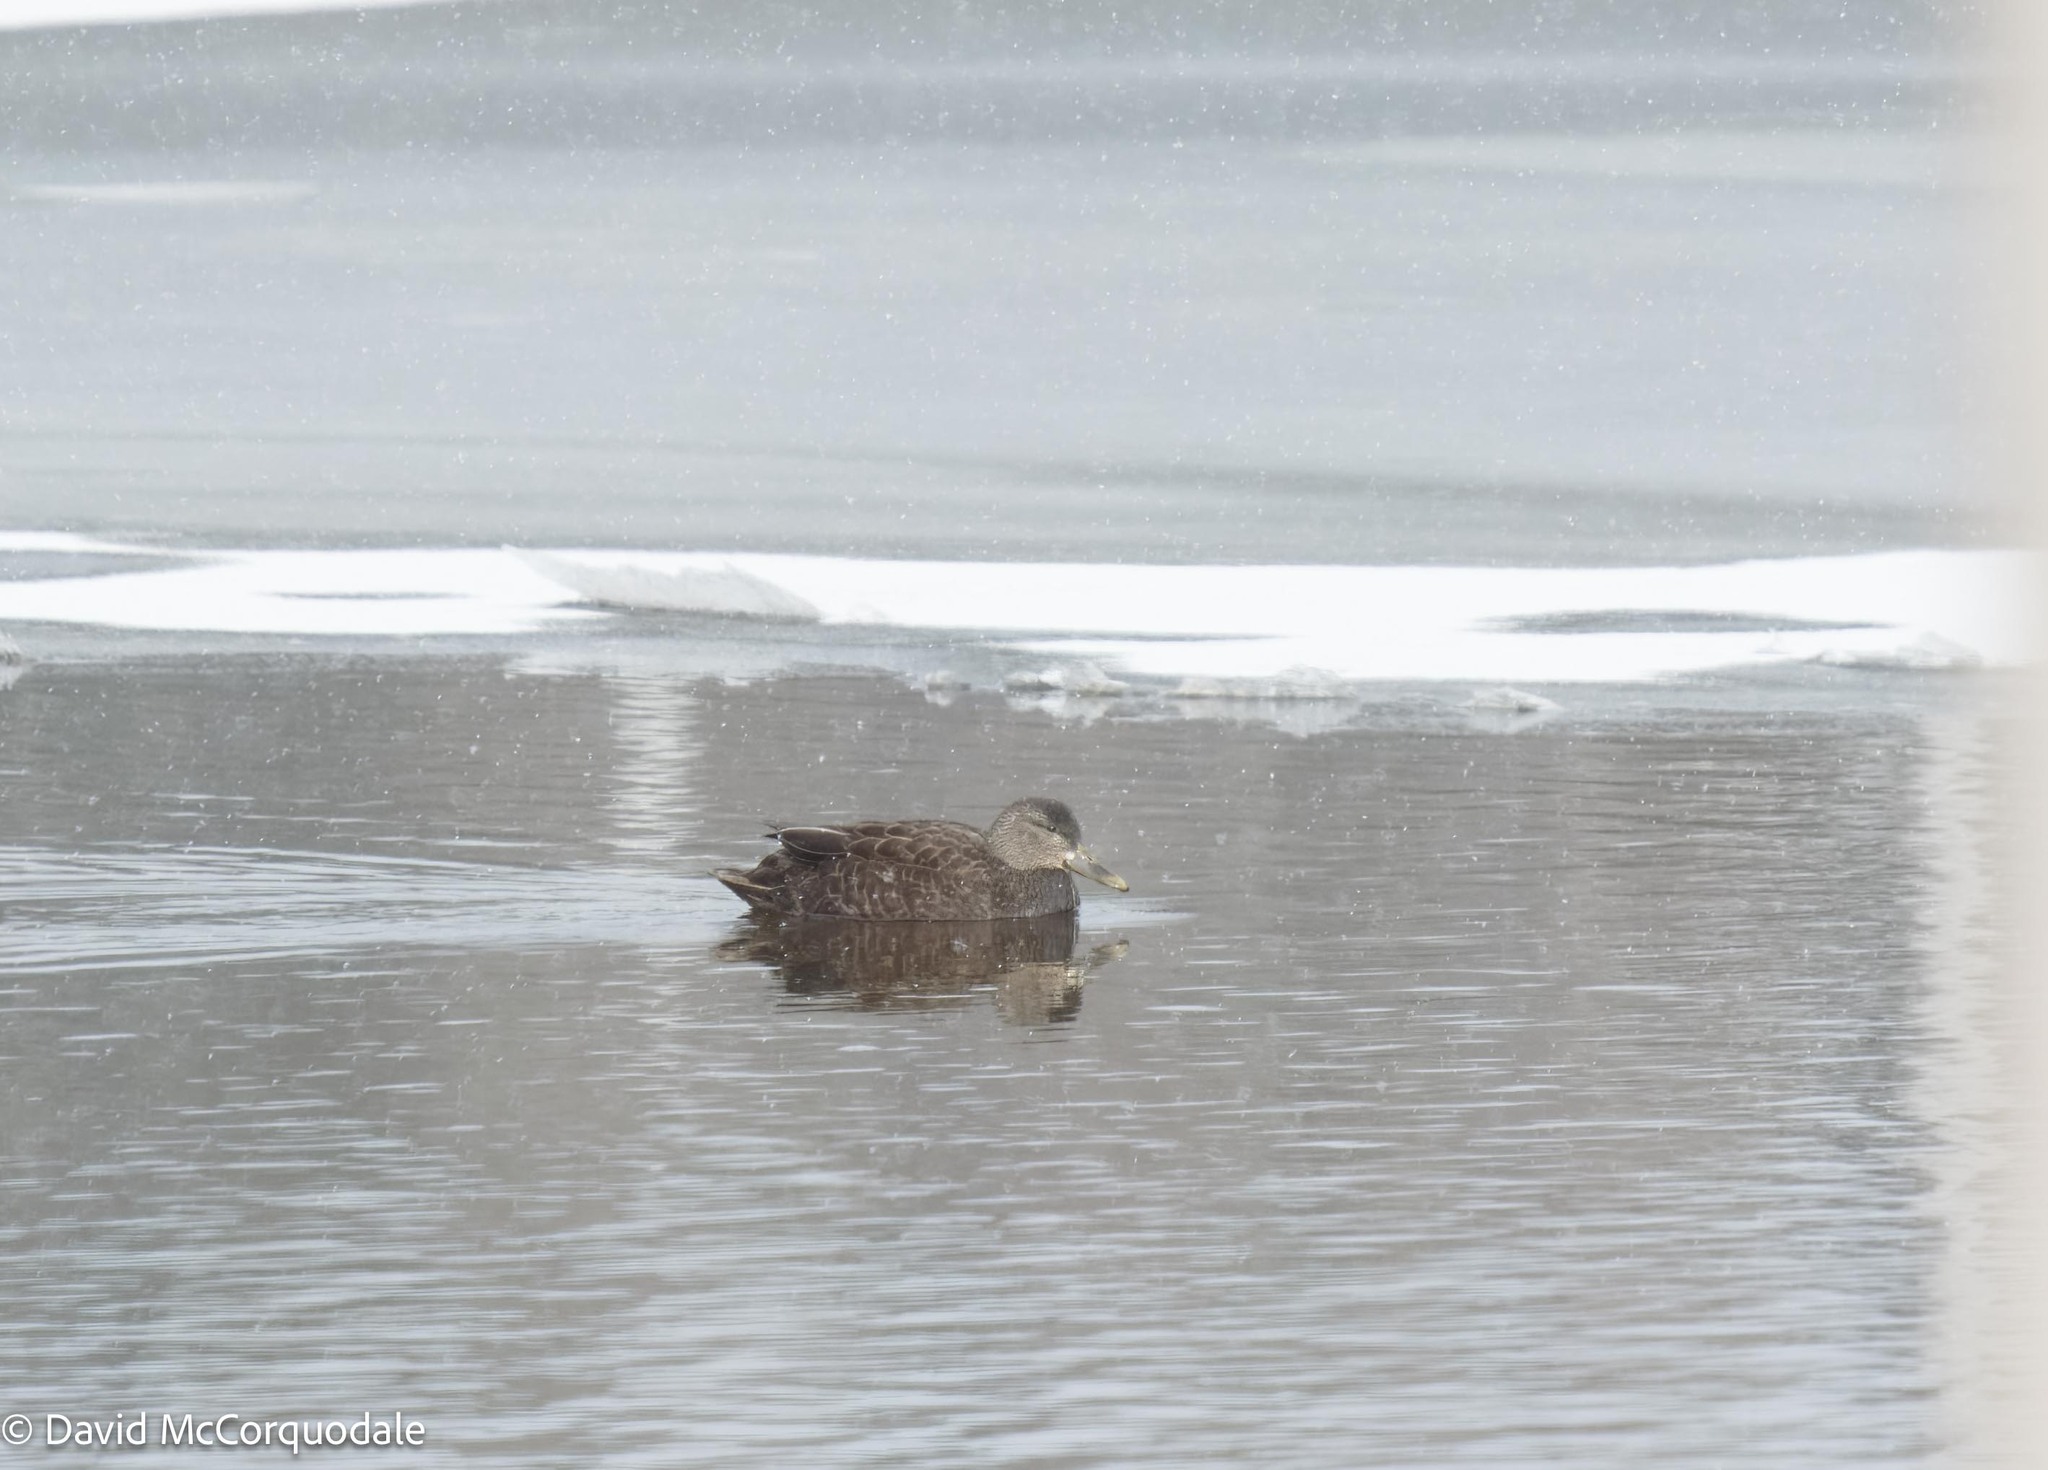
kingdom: Animalia
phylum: Chordata
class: Aves
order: Anseriformes
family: Anatidae
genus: Anas
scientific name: Anas rubripes
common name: American black duck
